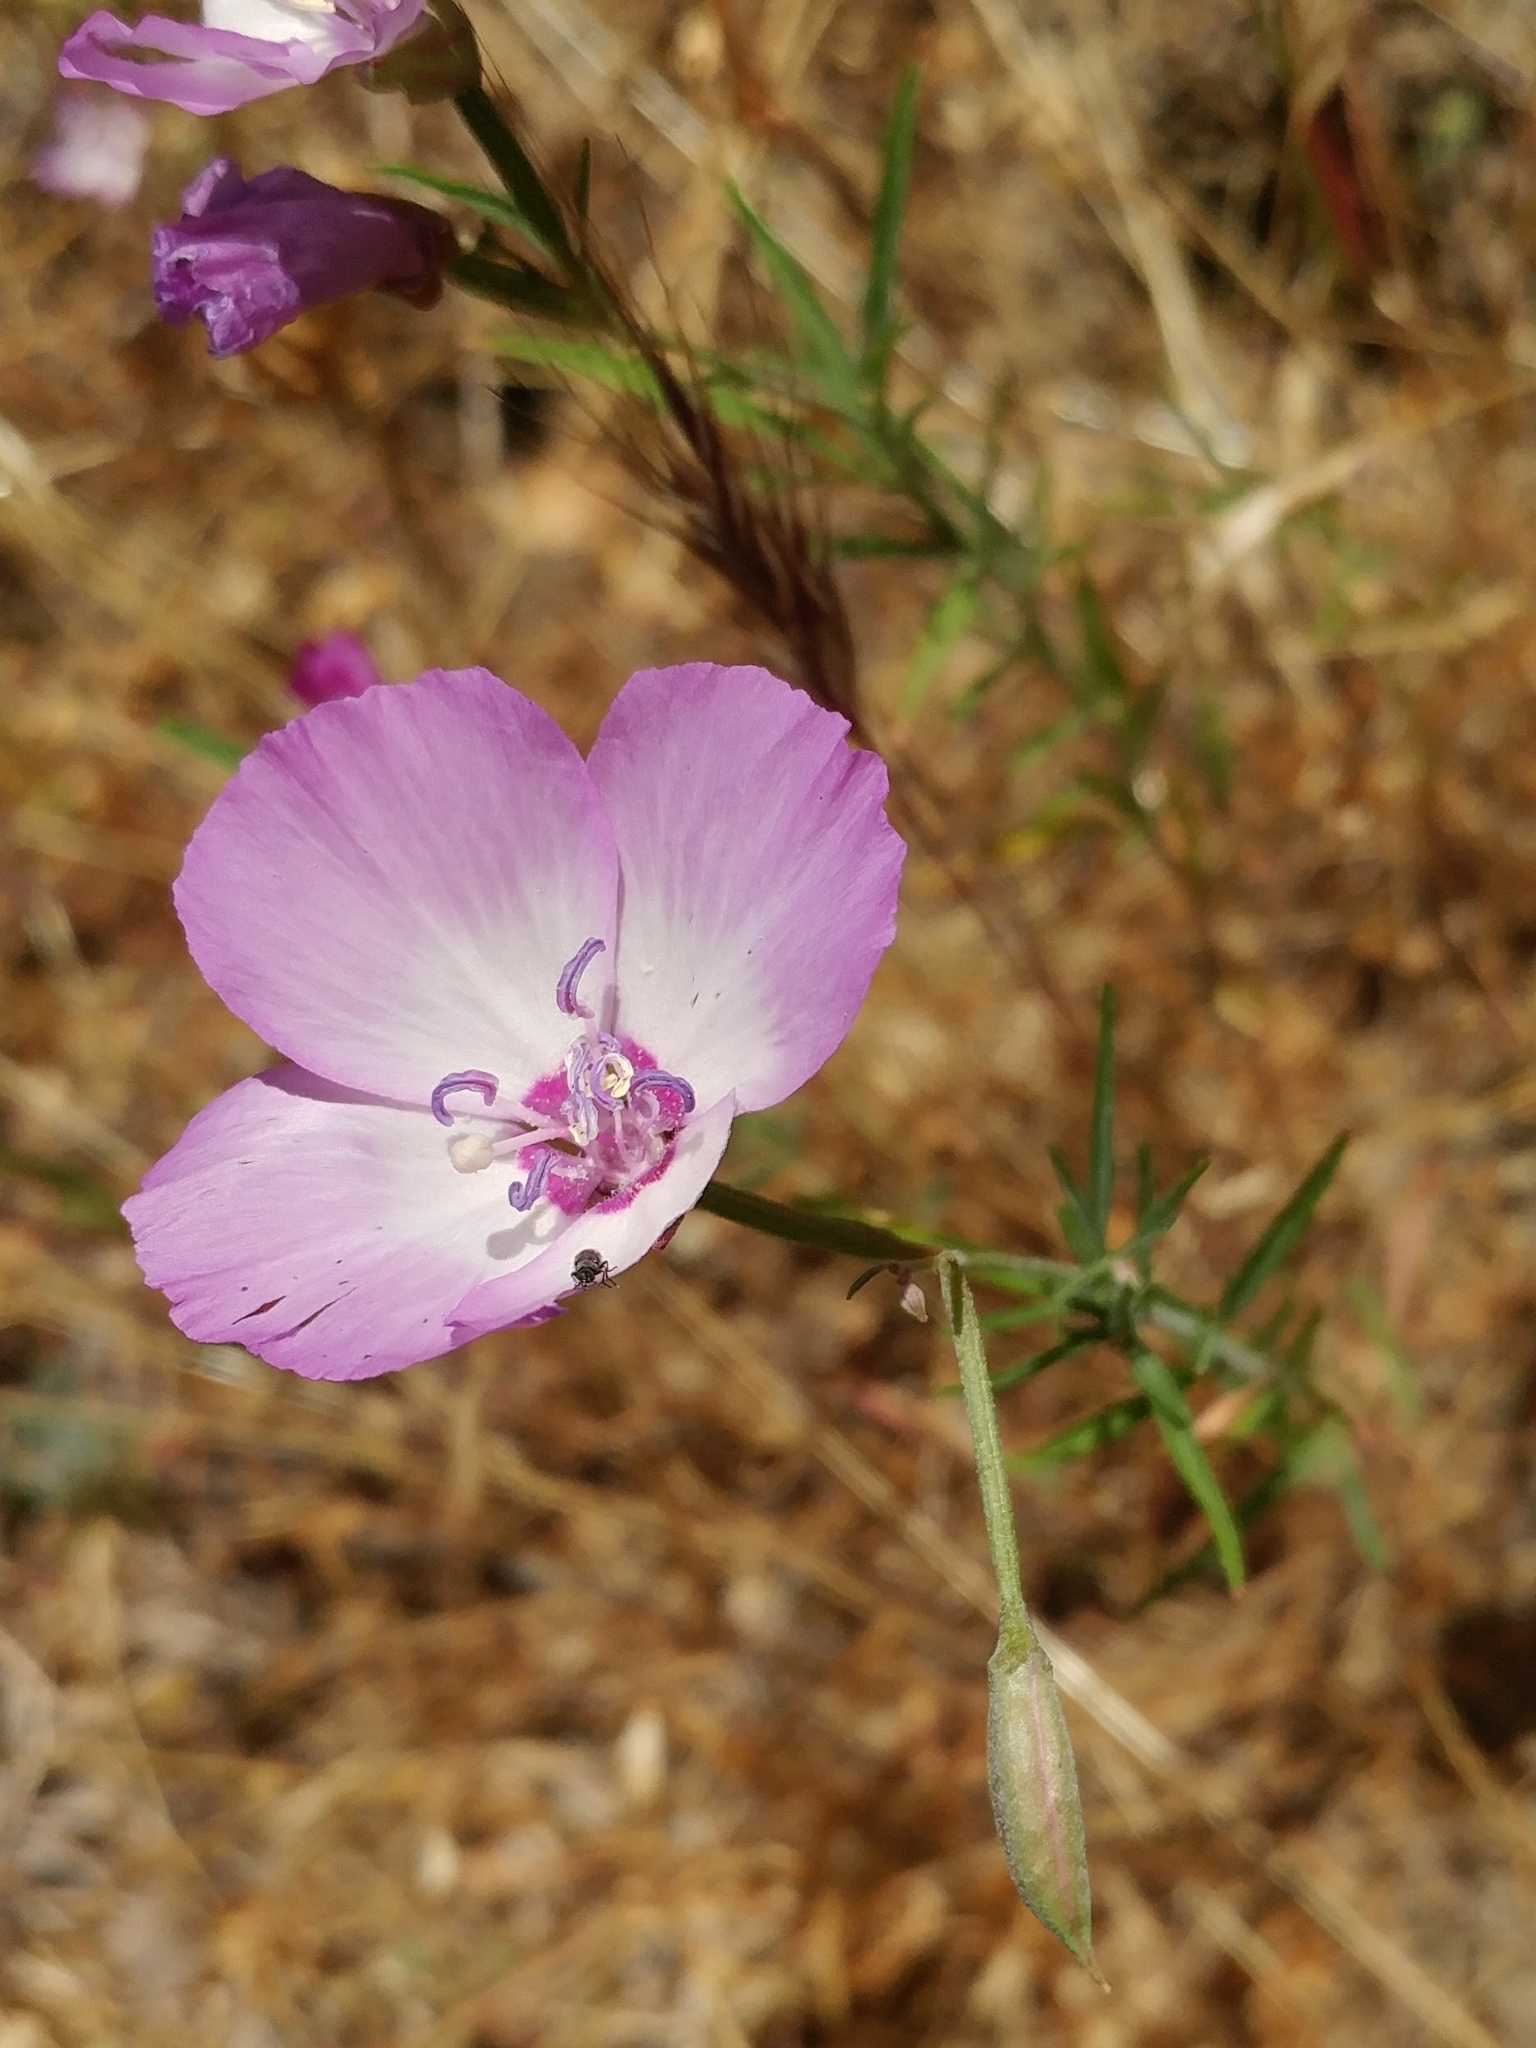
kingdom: Plantae
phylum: Tracheophyta
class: Magnoliopsida
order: Myrtales
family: Onagraceae
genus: Clarkia
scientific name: Clarkia cylindrica
